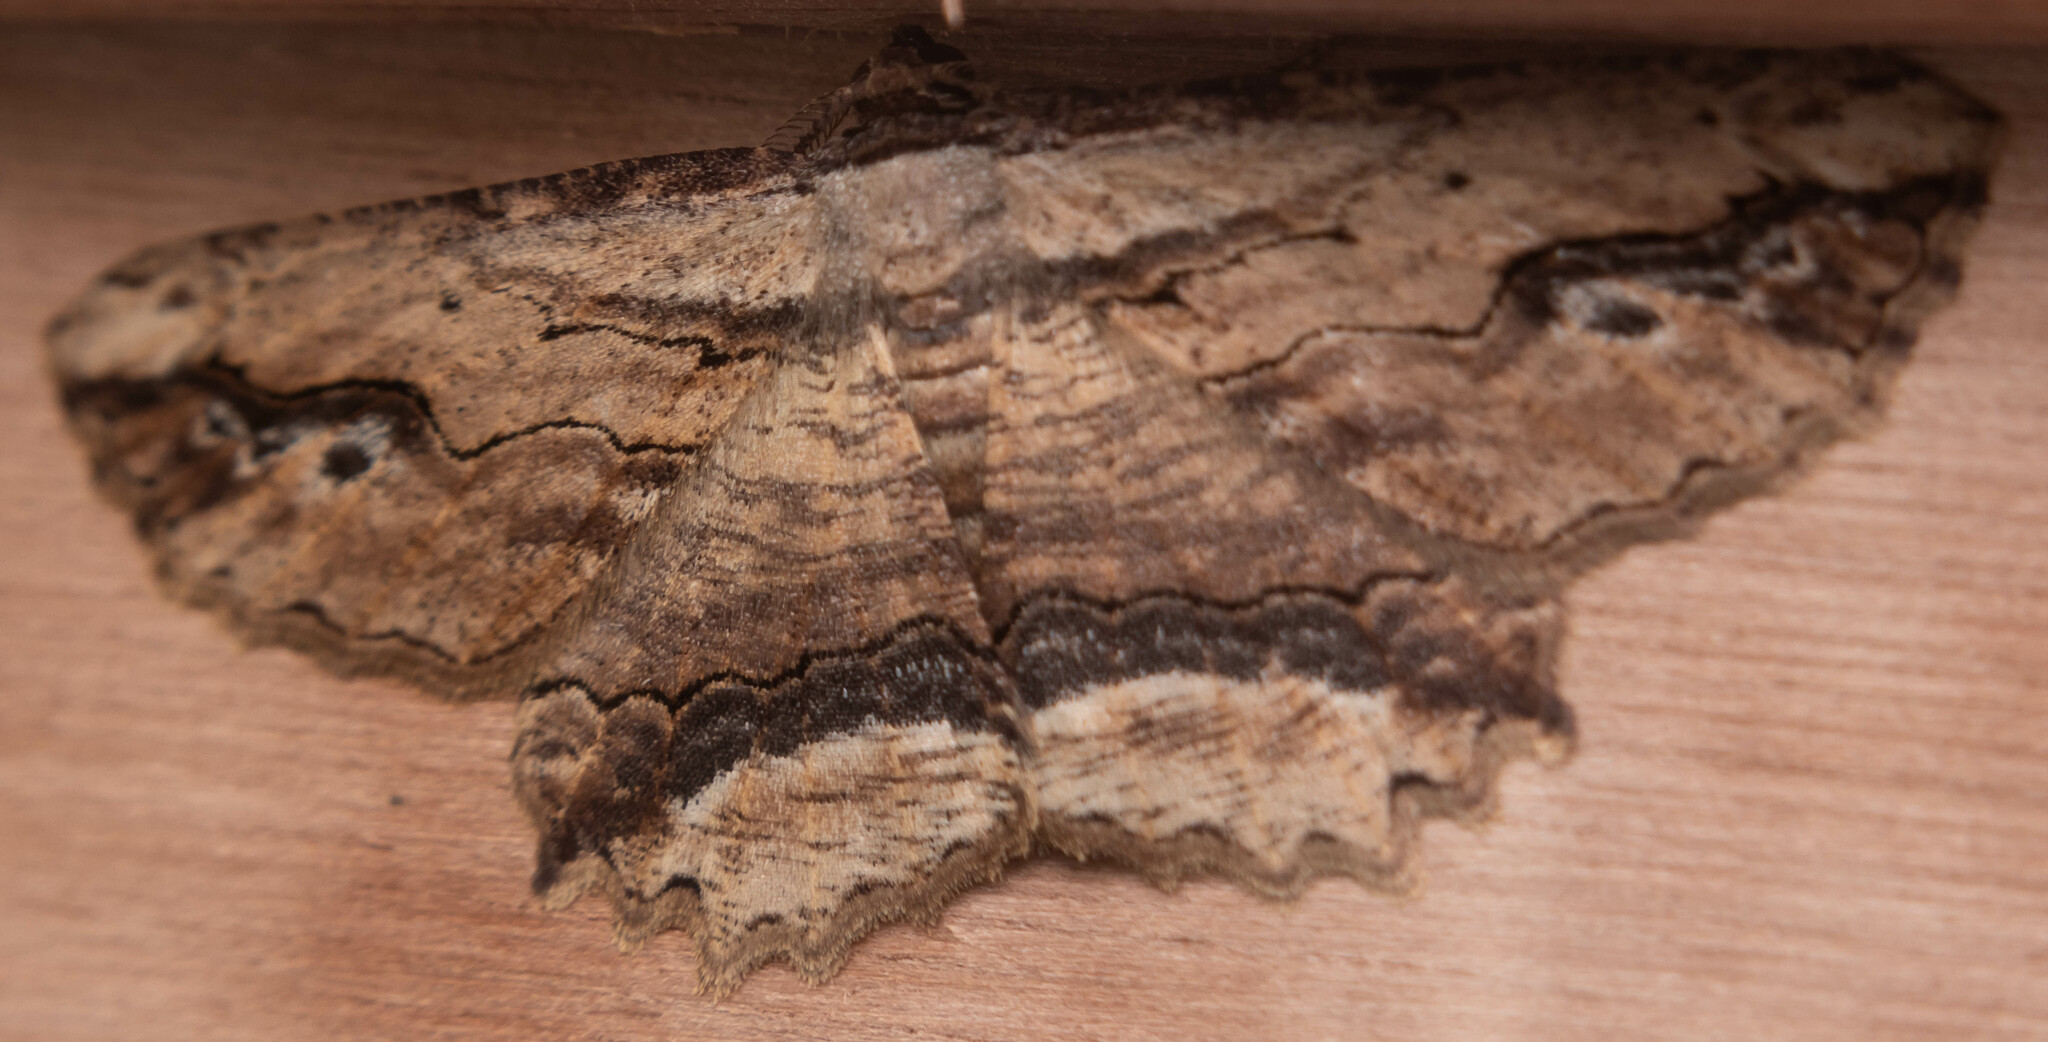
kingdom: Animalia
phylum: Arthropoda
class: Insecta
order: Lepidoptera
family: Geometridae
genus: Menophra
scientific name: Menophra abruptaria
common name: Waved umber
